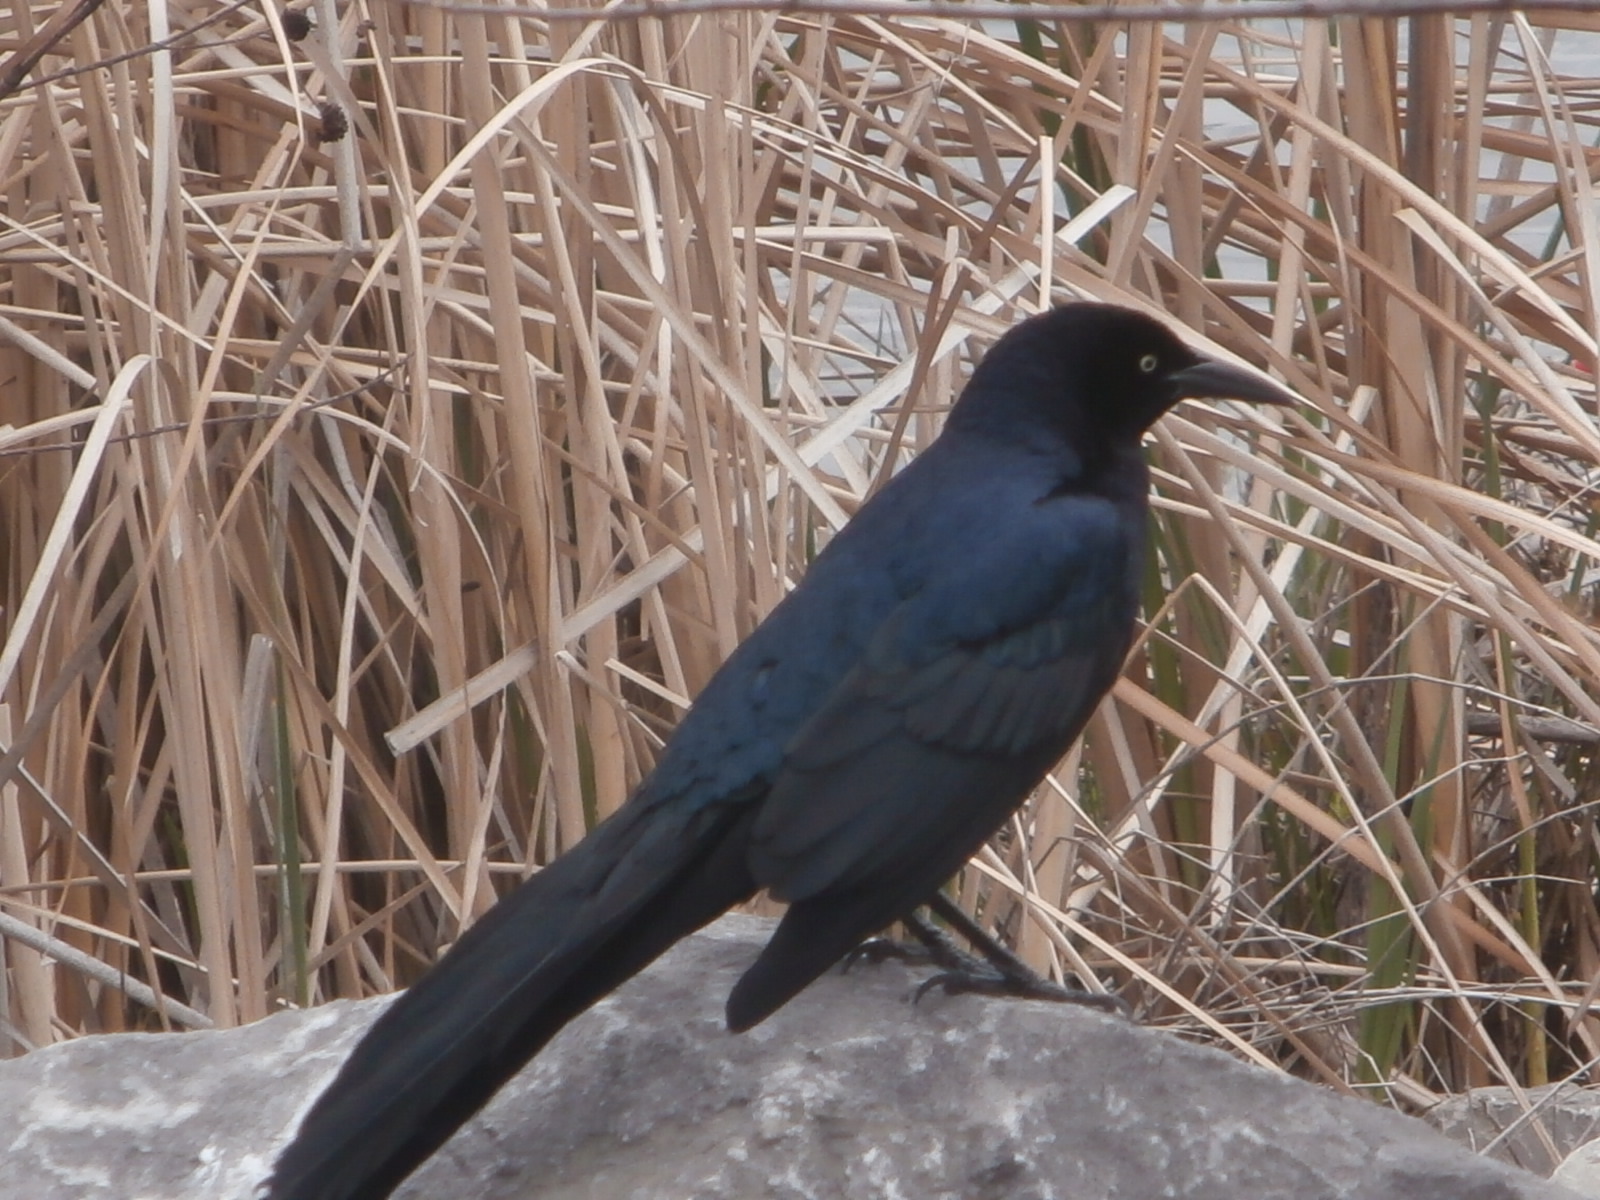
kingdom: Animalia
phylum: Chordata
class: Aves
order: Passeriformes
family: Icteridae
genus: Quiscalus
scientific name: Quiscalus mexicanus
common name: Great-tailed grackle
